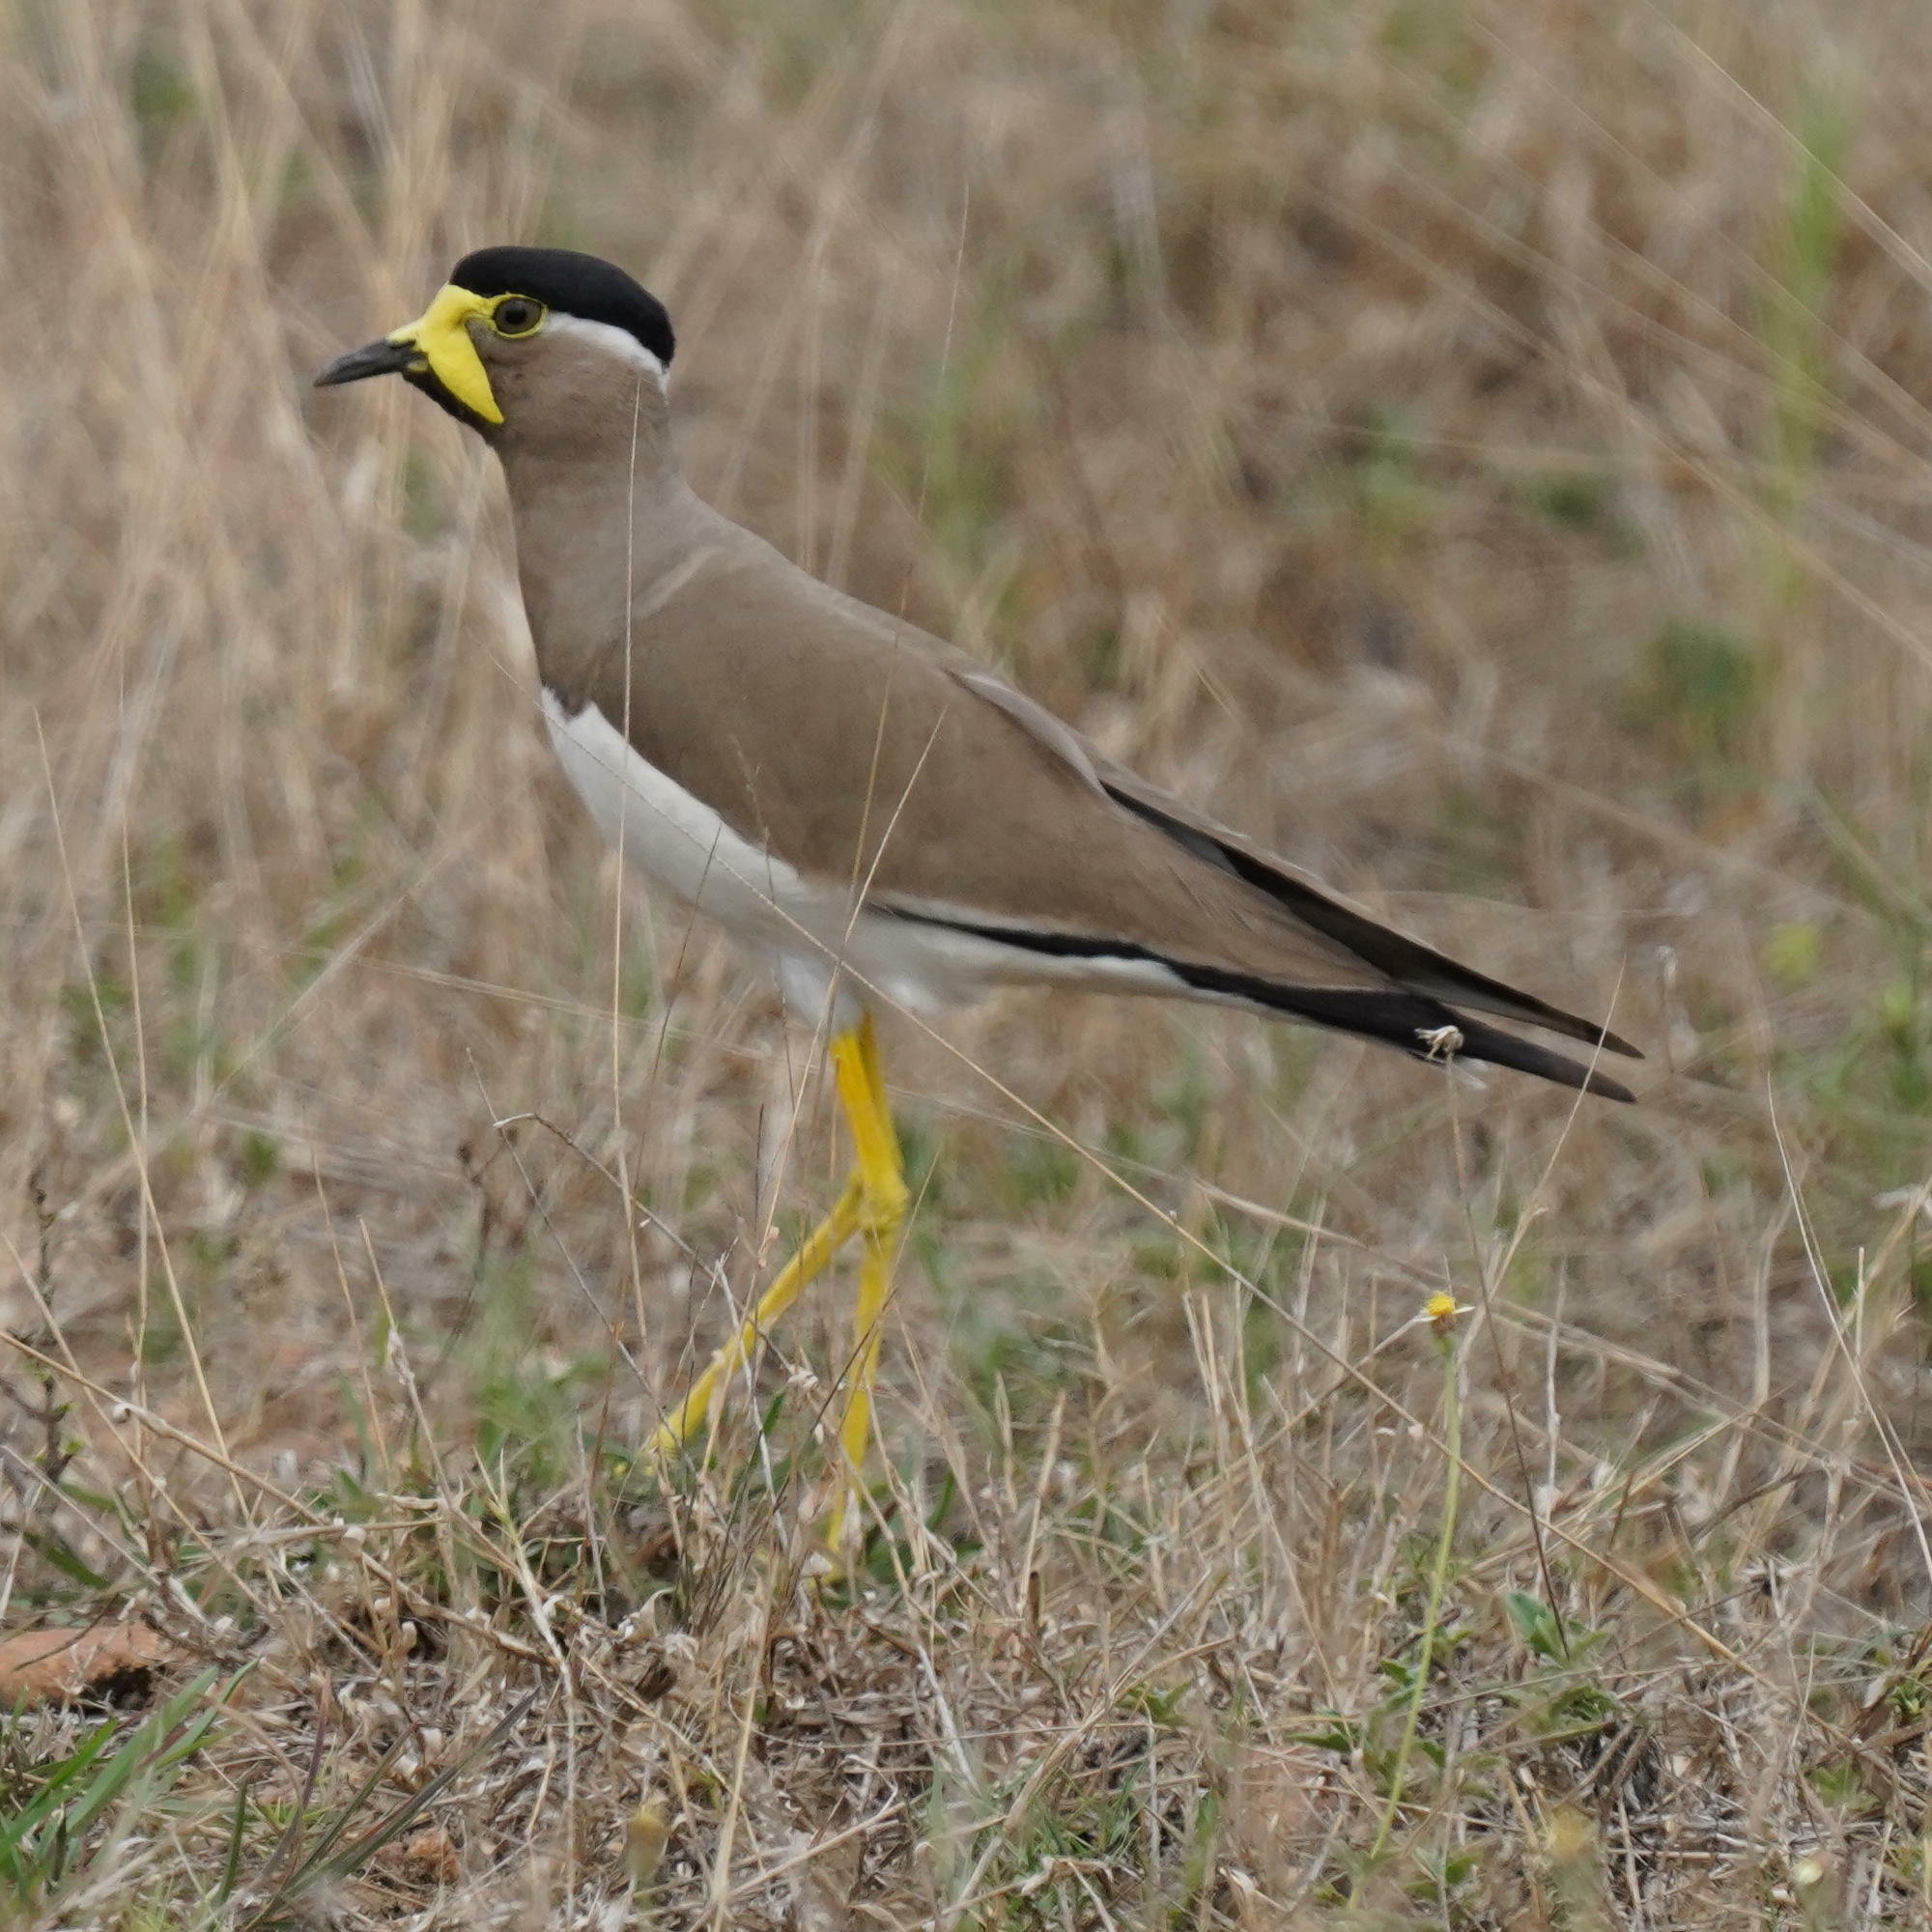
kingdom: Animalia
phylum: Chordata
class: Aves
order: Charadriiformes
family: Charadriidae
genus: Vanellus
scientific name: Vanellus malabaricus
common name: Yellow-wattled lapwing
